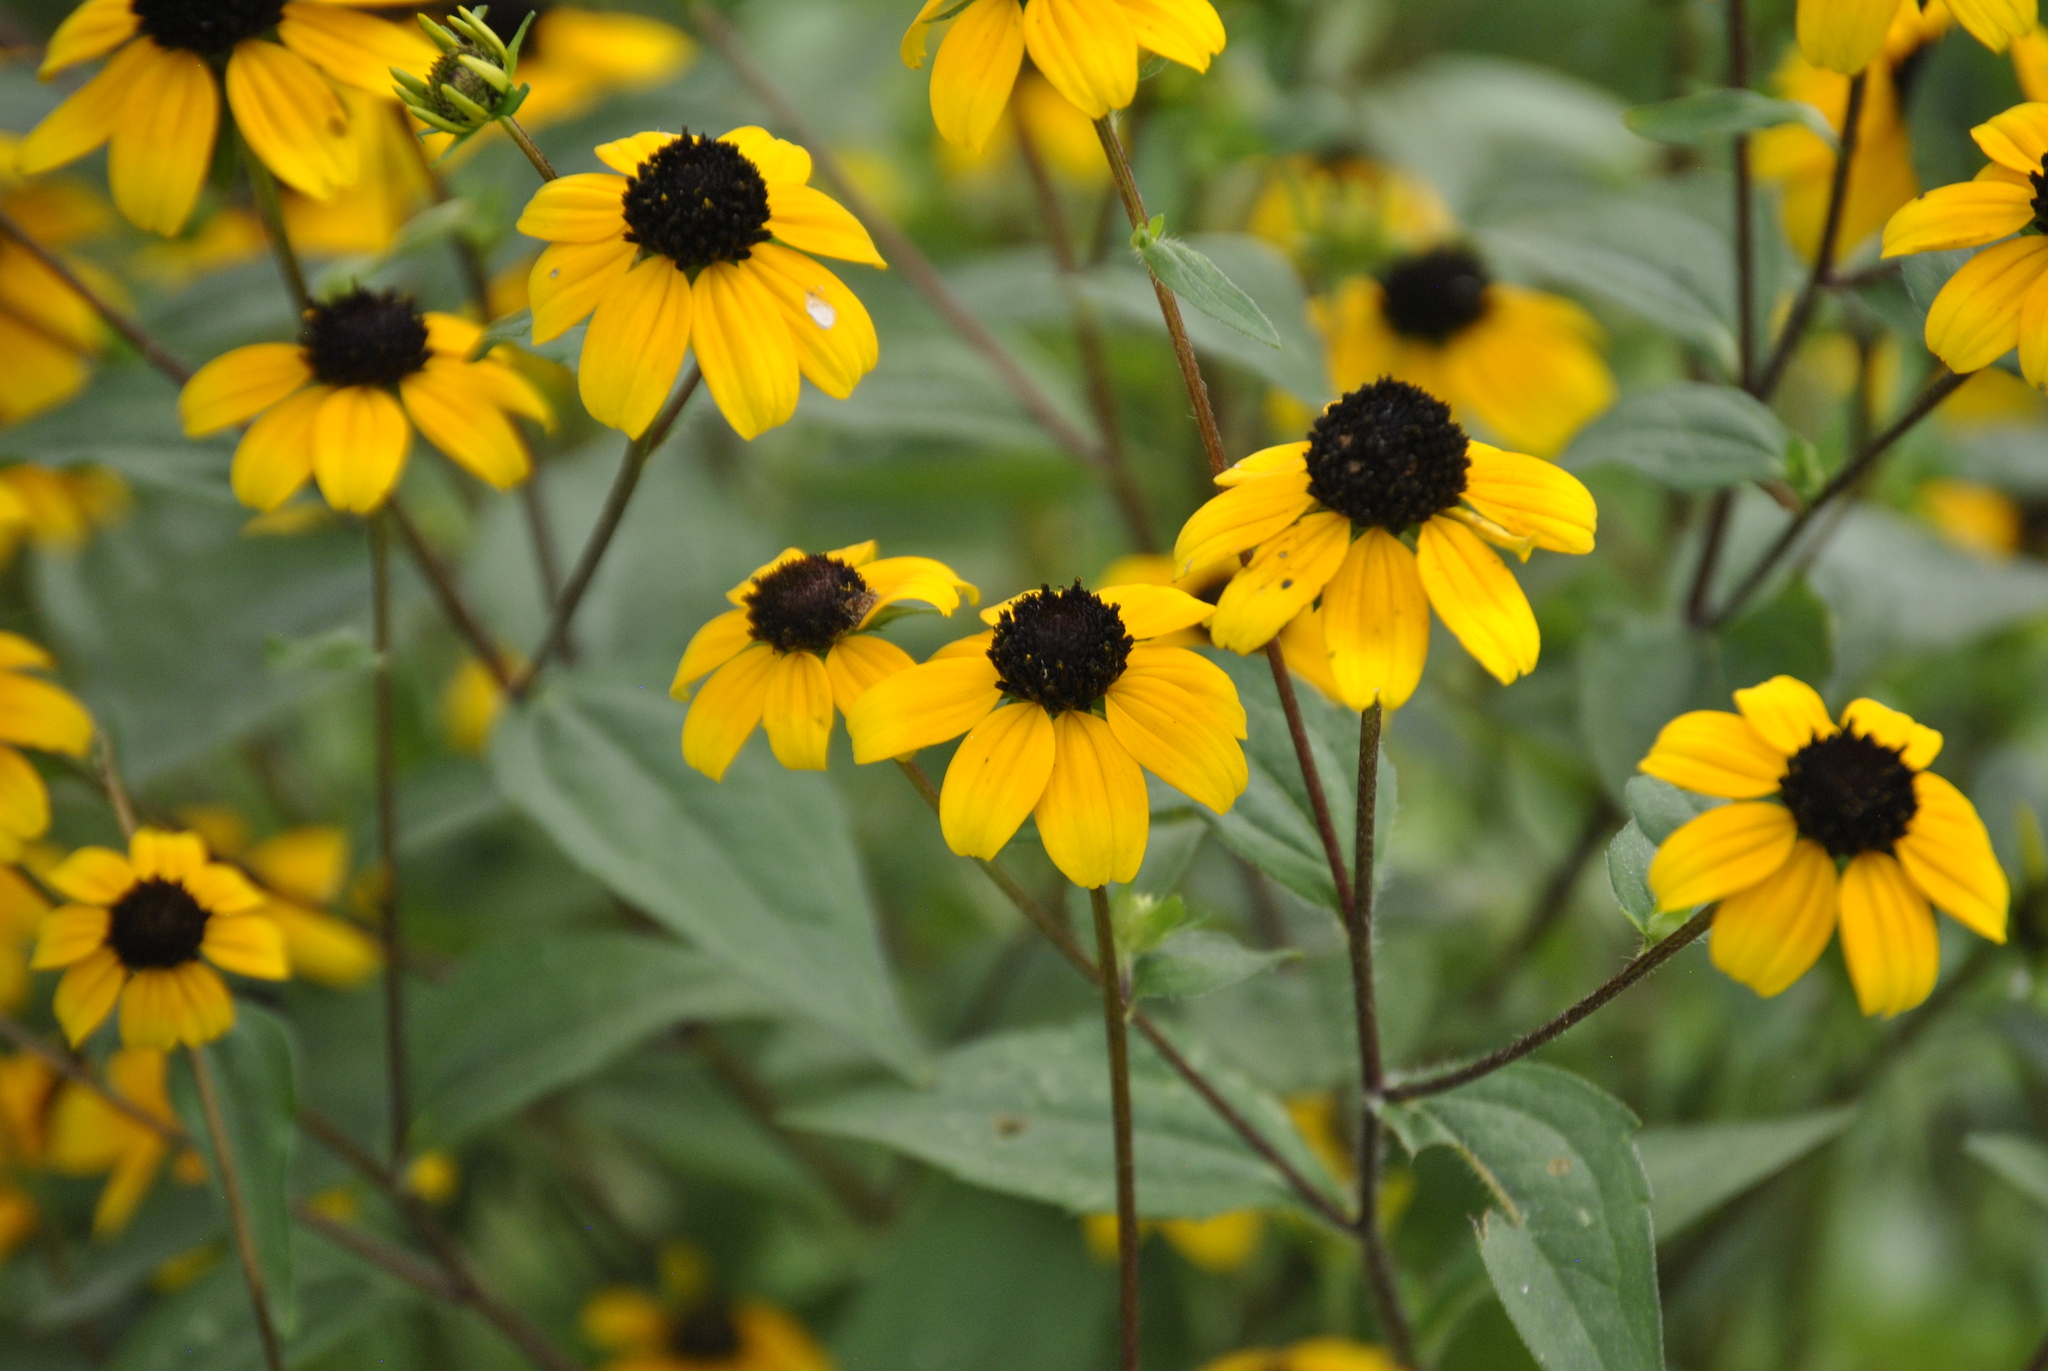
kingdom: Plantae
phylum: Tracheophyta
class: Magnoliopsida
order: Asterales
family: Asteraceae
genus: Rudbeckia
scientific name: Rudbeckia triloba
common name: Thin-leaved coneflower
